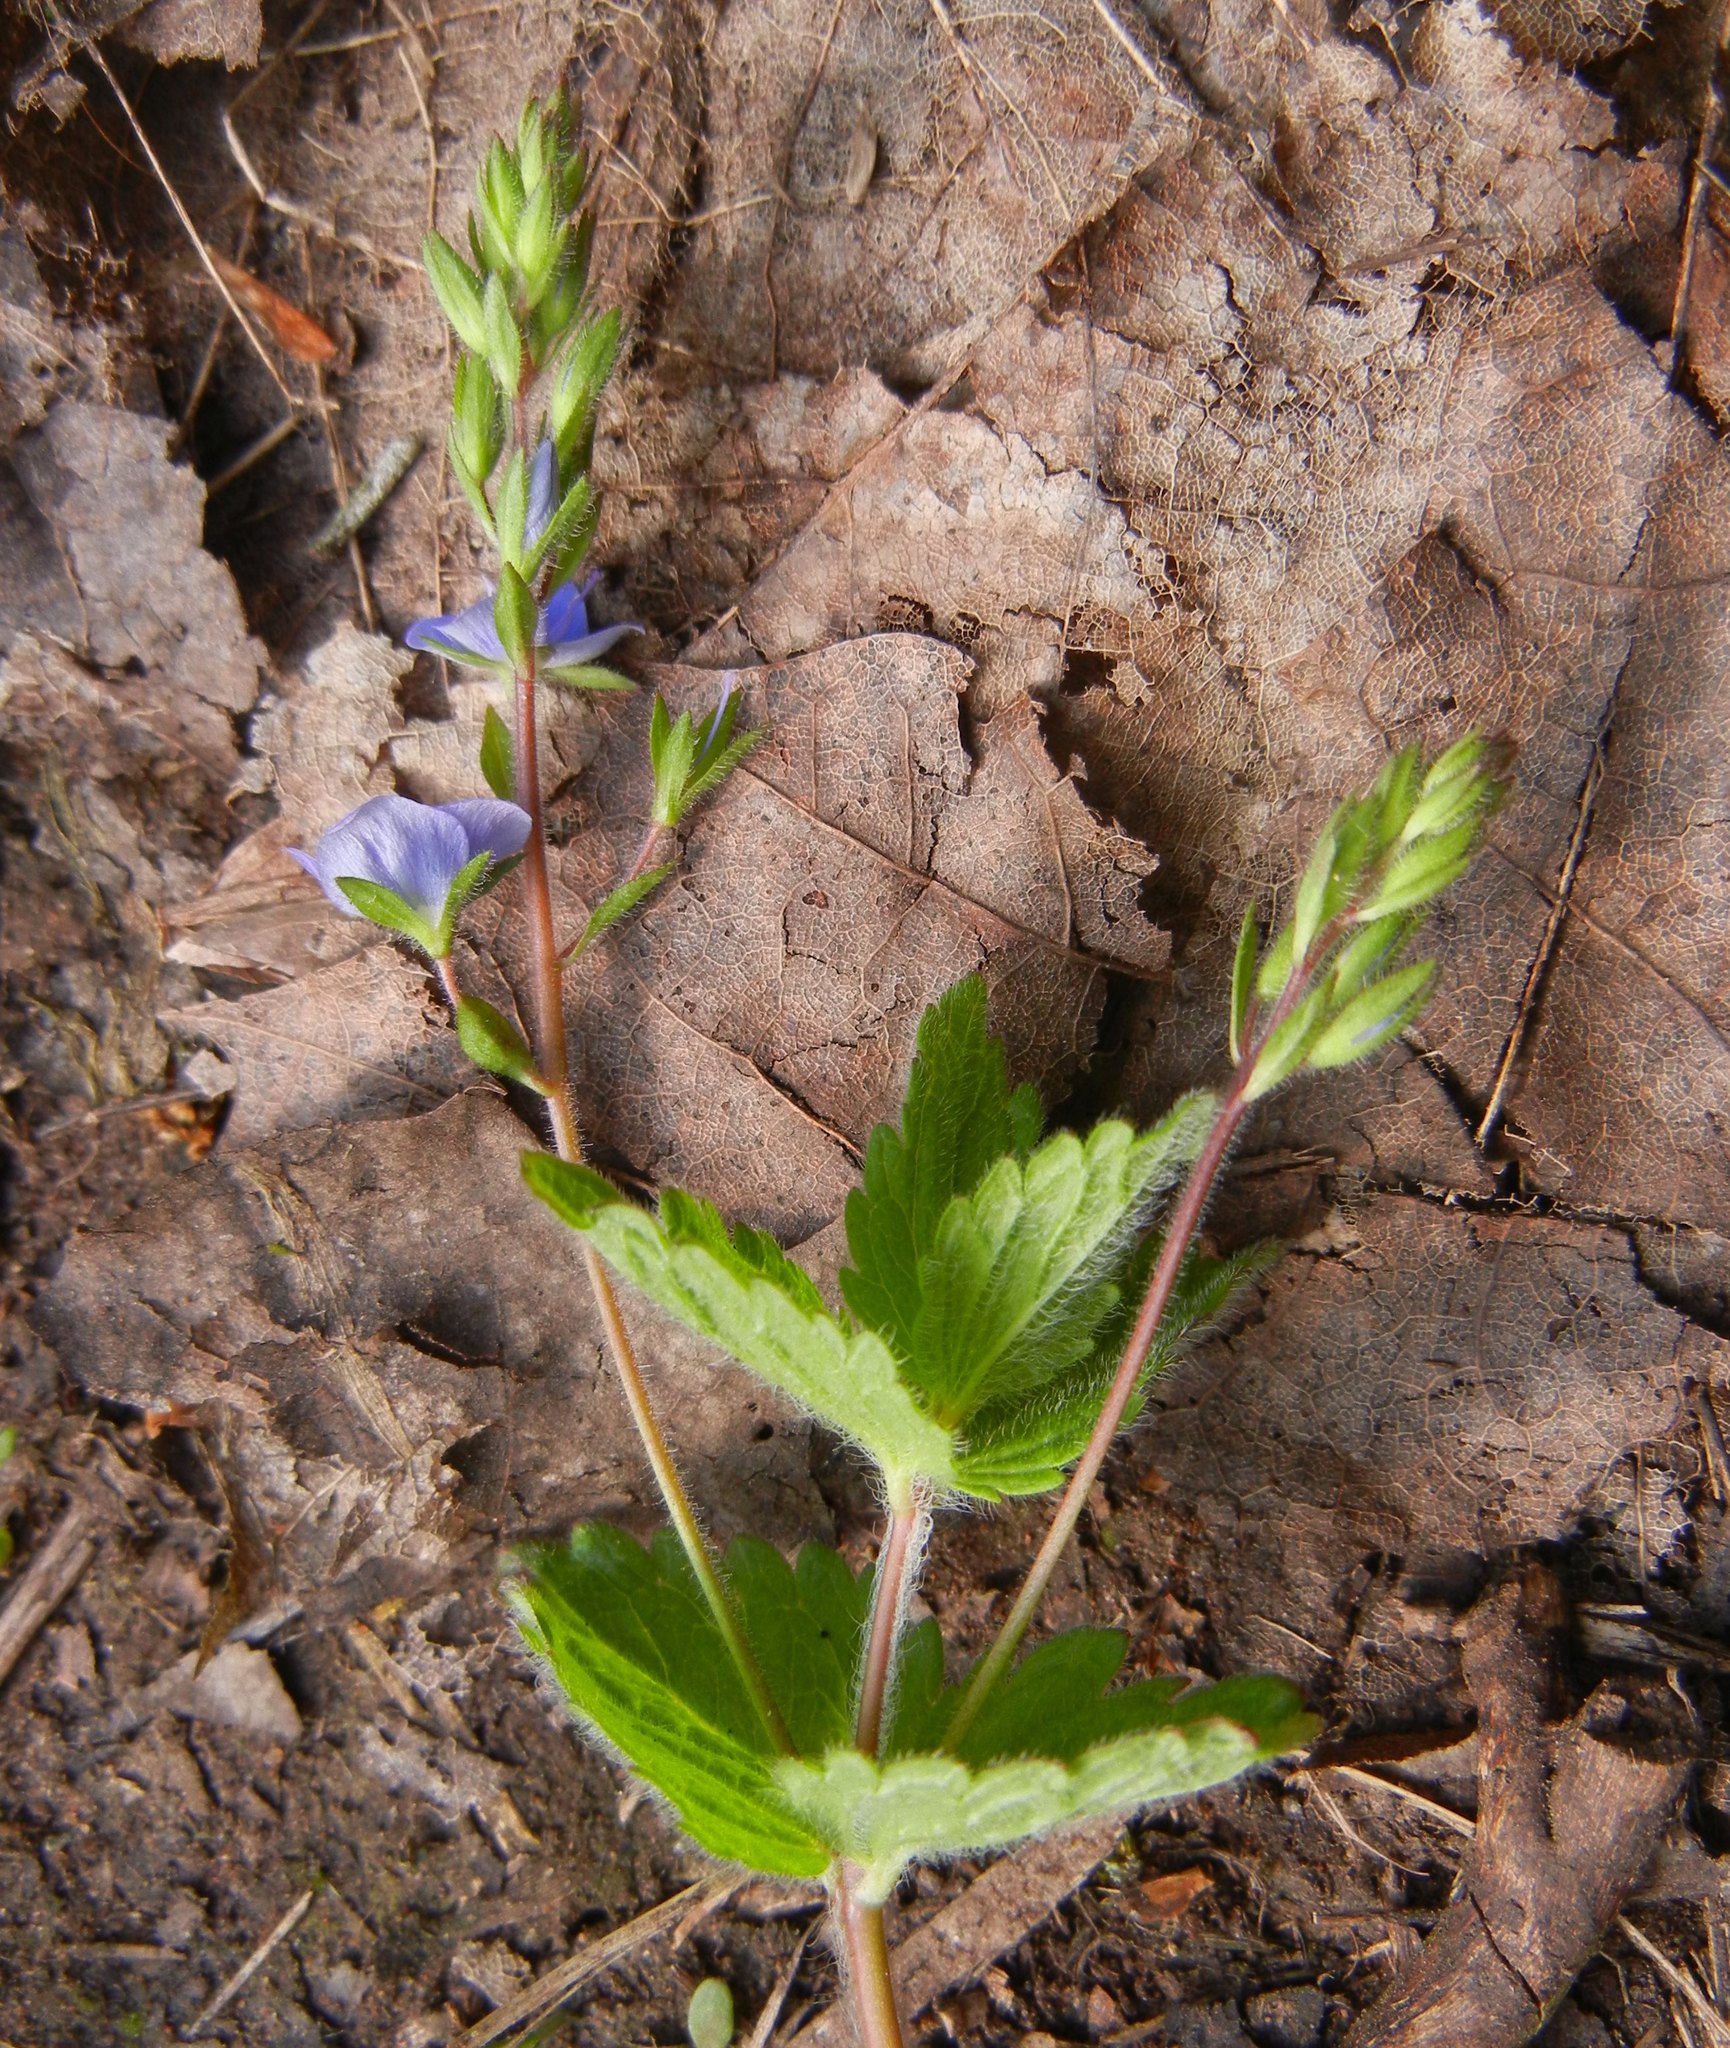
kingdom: Plantae
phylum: Tracheophyta
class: Magnoliopsida
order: Lamiales
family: Plantaginaceae
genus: Veronica
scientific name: Veronica chamaedrys
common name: Germander speedwell
